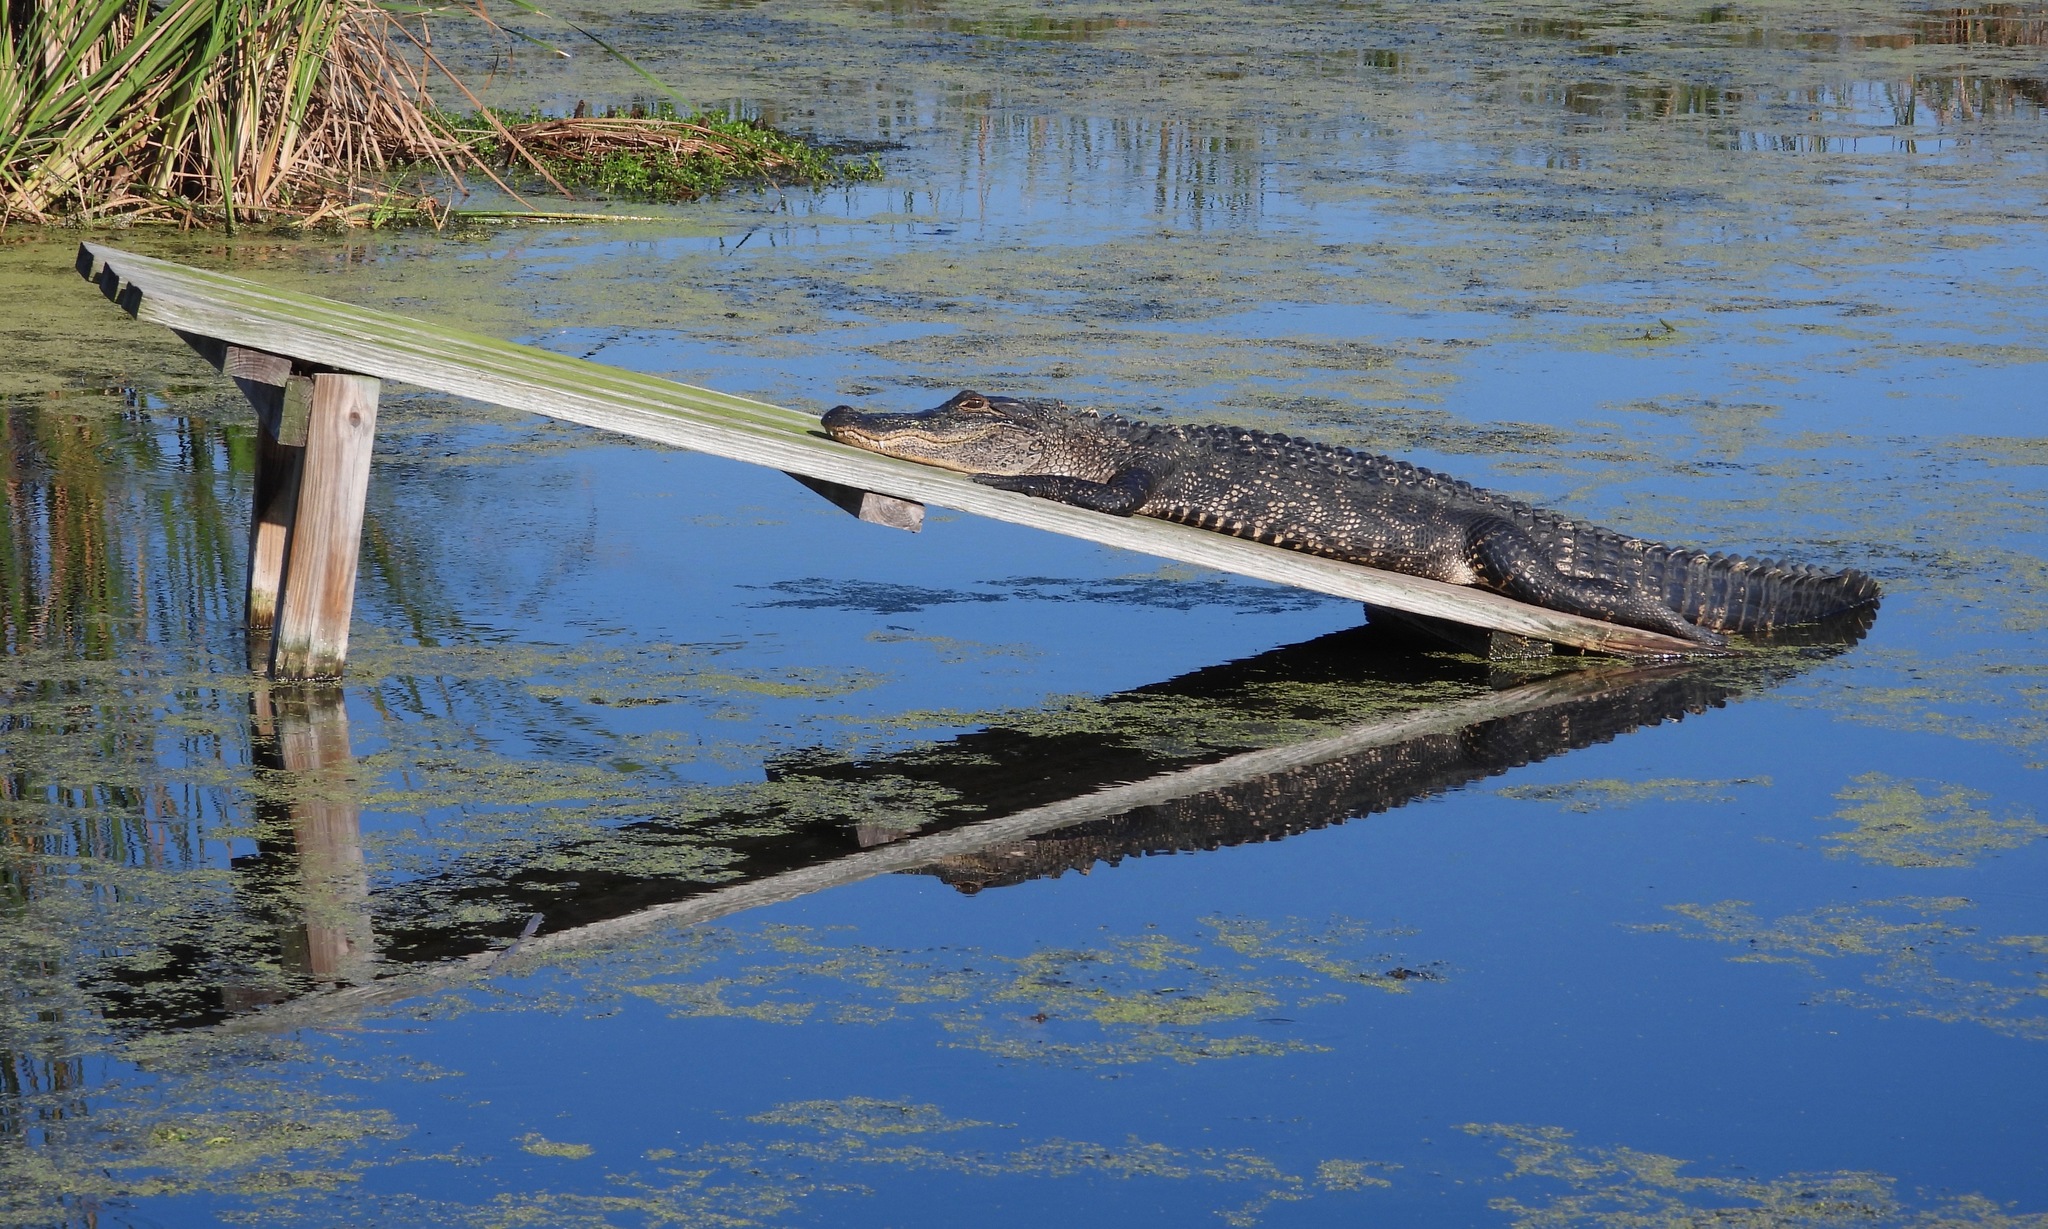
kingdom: Animalia
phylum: Chordata
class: Crocodylia
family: Alligatoridae
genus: Alligator
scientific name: Alligator mississippiensis
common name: American alligator
